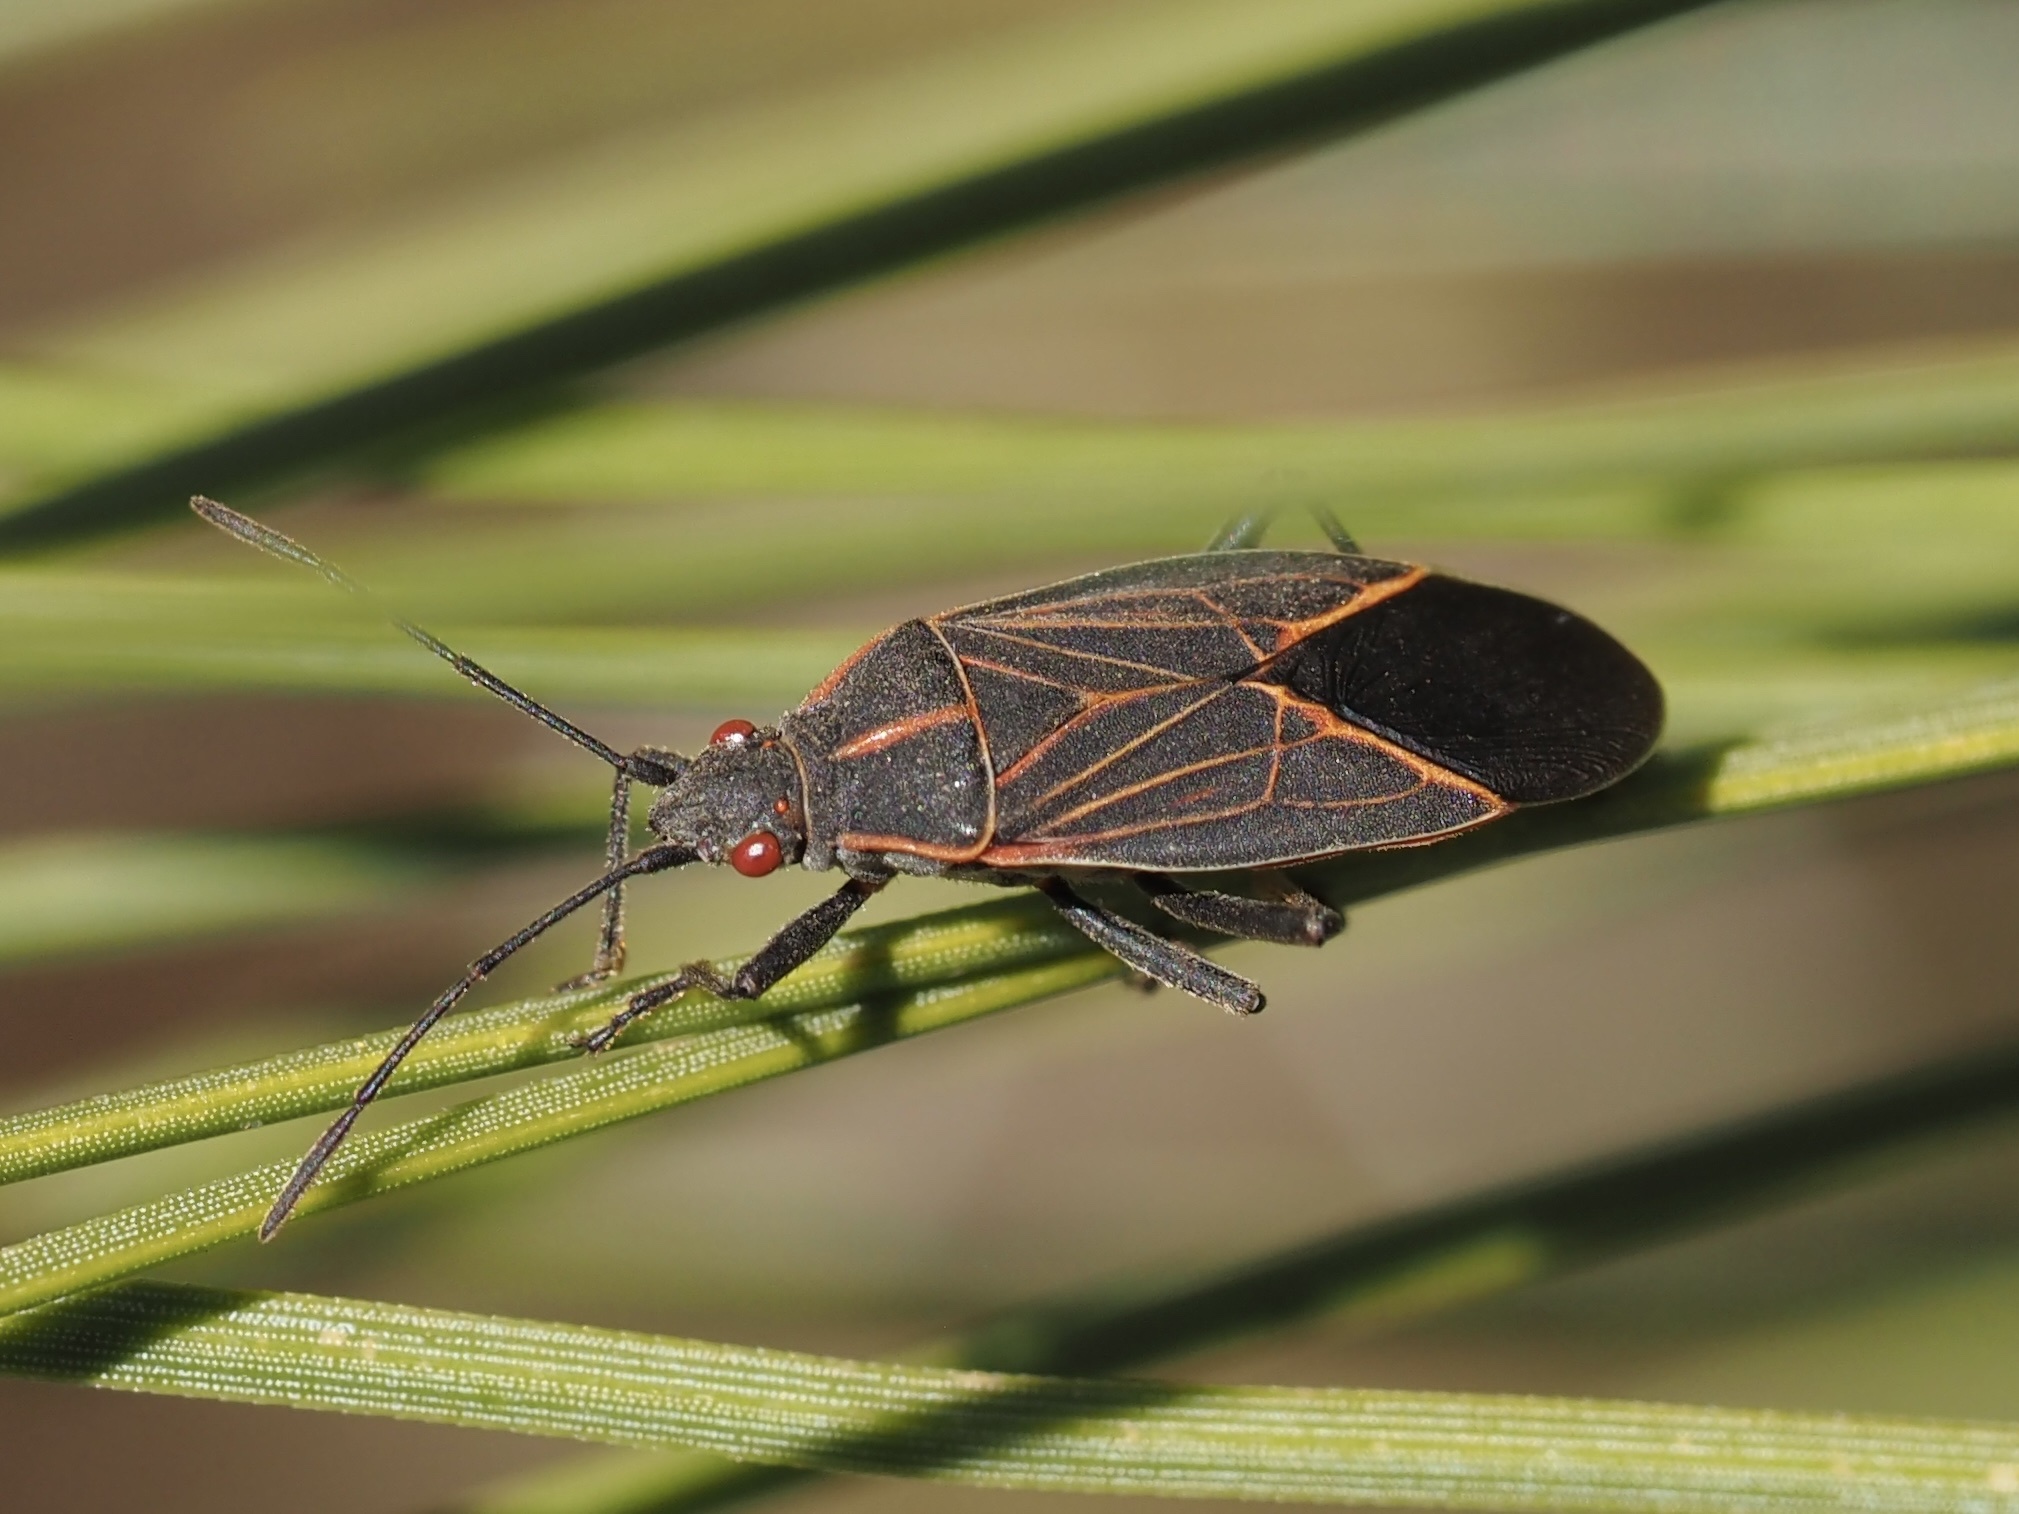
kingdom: Animalia
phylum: Arthropoda
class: Insecta
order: Hemiptera
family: Rhopalidae
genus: Boisea
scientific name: Boisea rubrolineata
